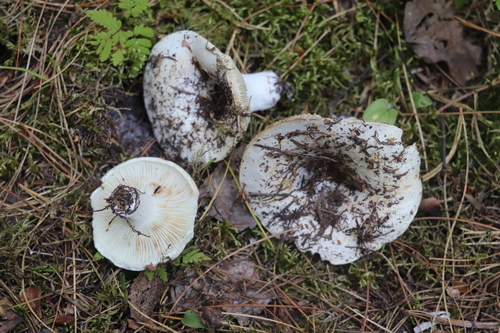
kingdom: Fungi
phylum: Basidiomycota
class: Agaricomycetes
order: Russulales
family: Russulaceae
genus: Russula
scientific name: Russula delica
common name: Milk white brittlegill
